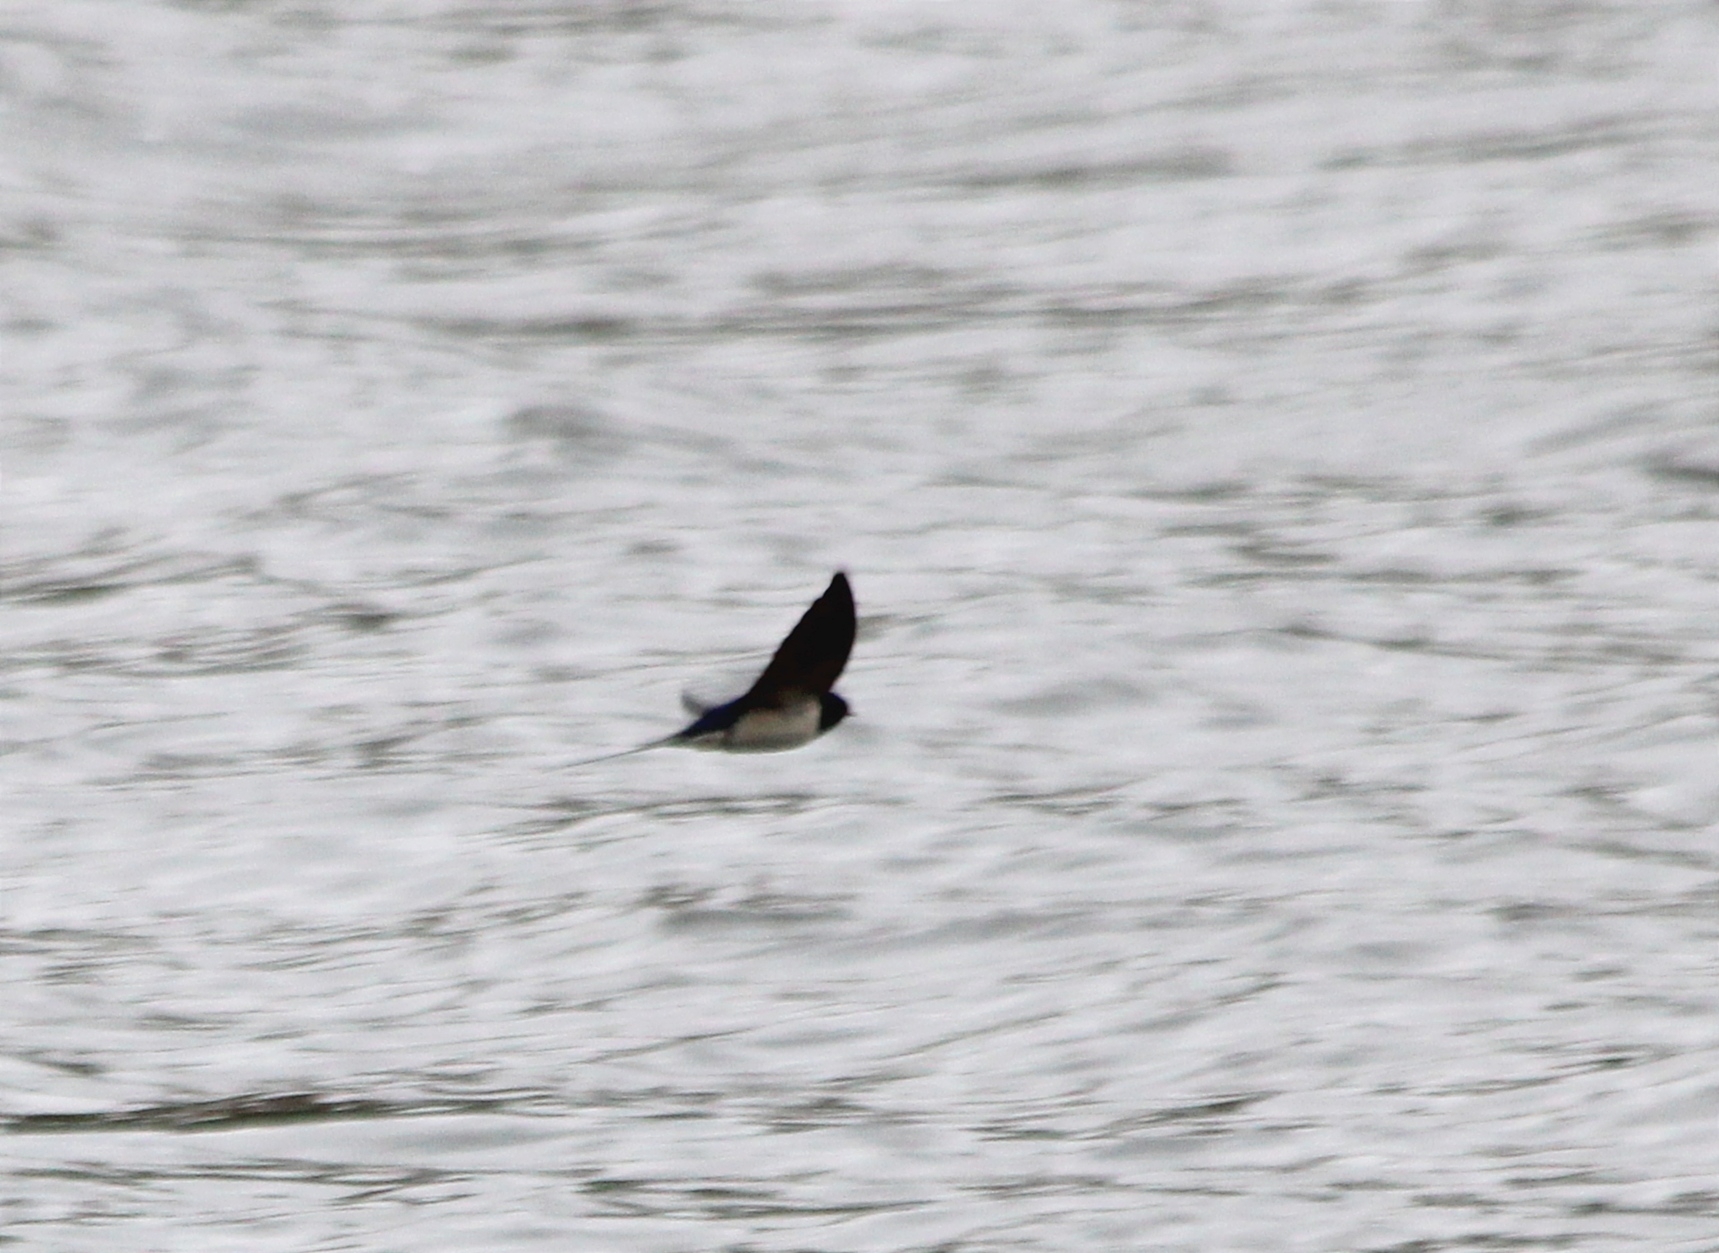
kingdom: Animalia
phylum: Chordata
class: Aves
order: Passeriformes
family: Hirundinidae
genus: Hirundo
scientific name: Hirundo rustica
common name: Barn swallow
